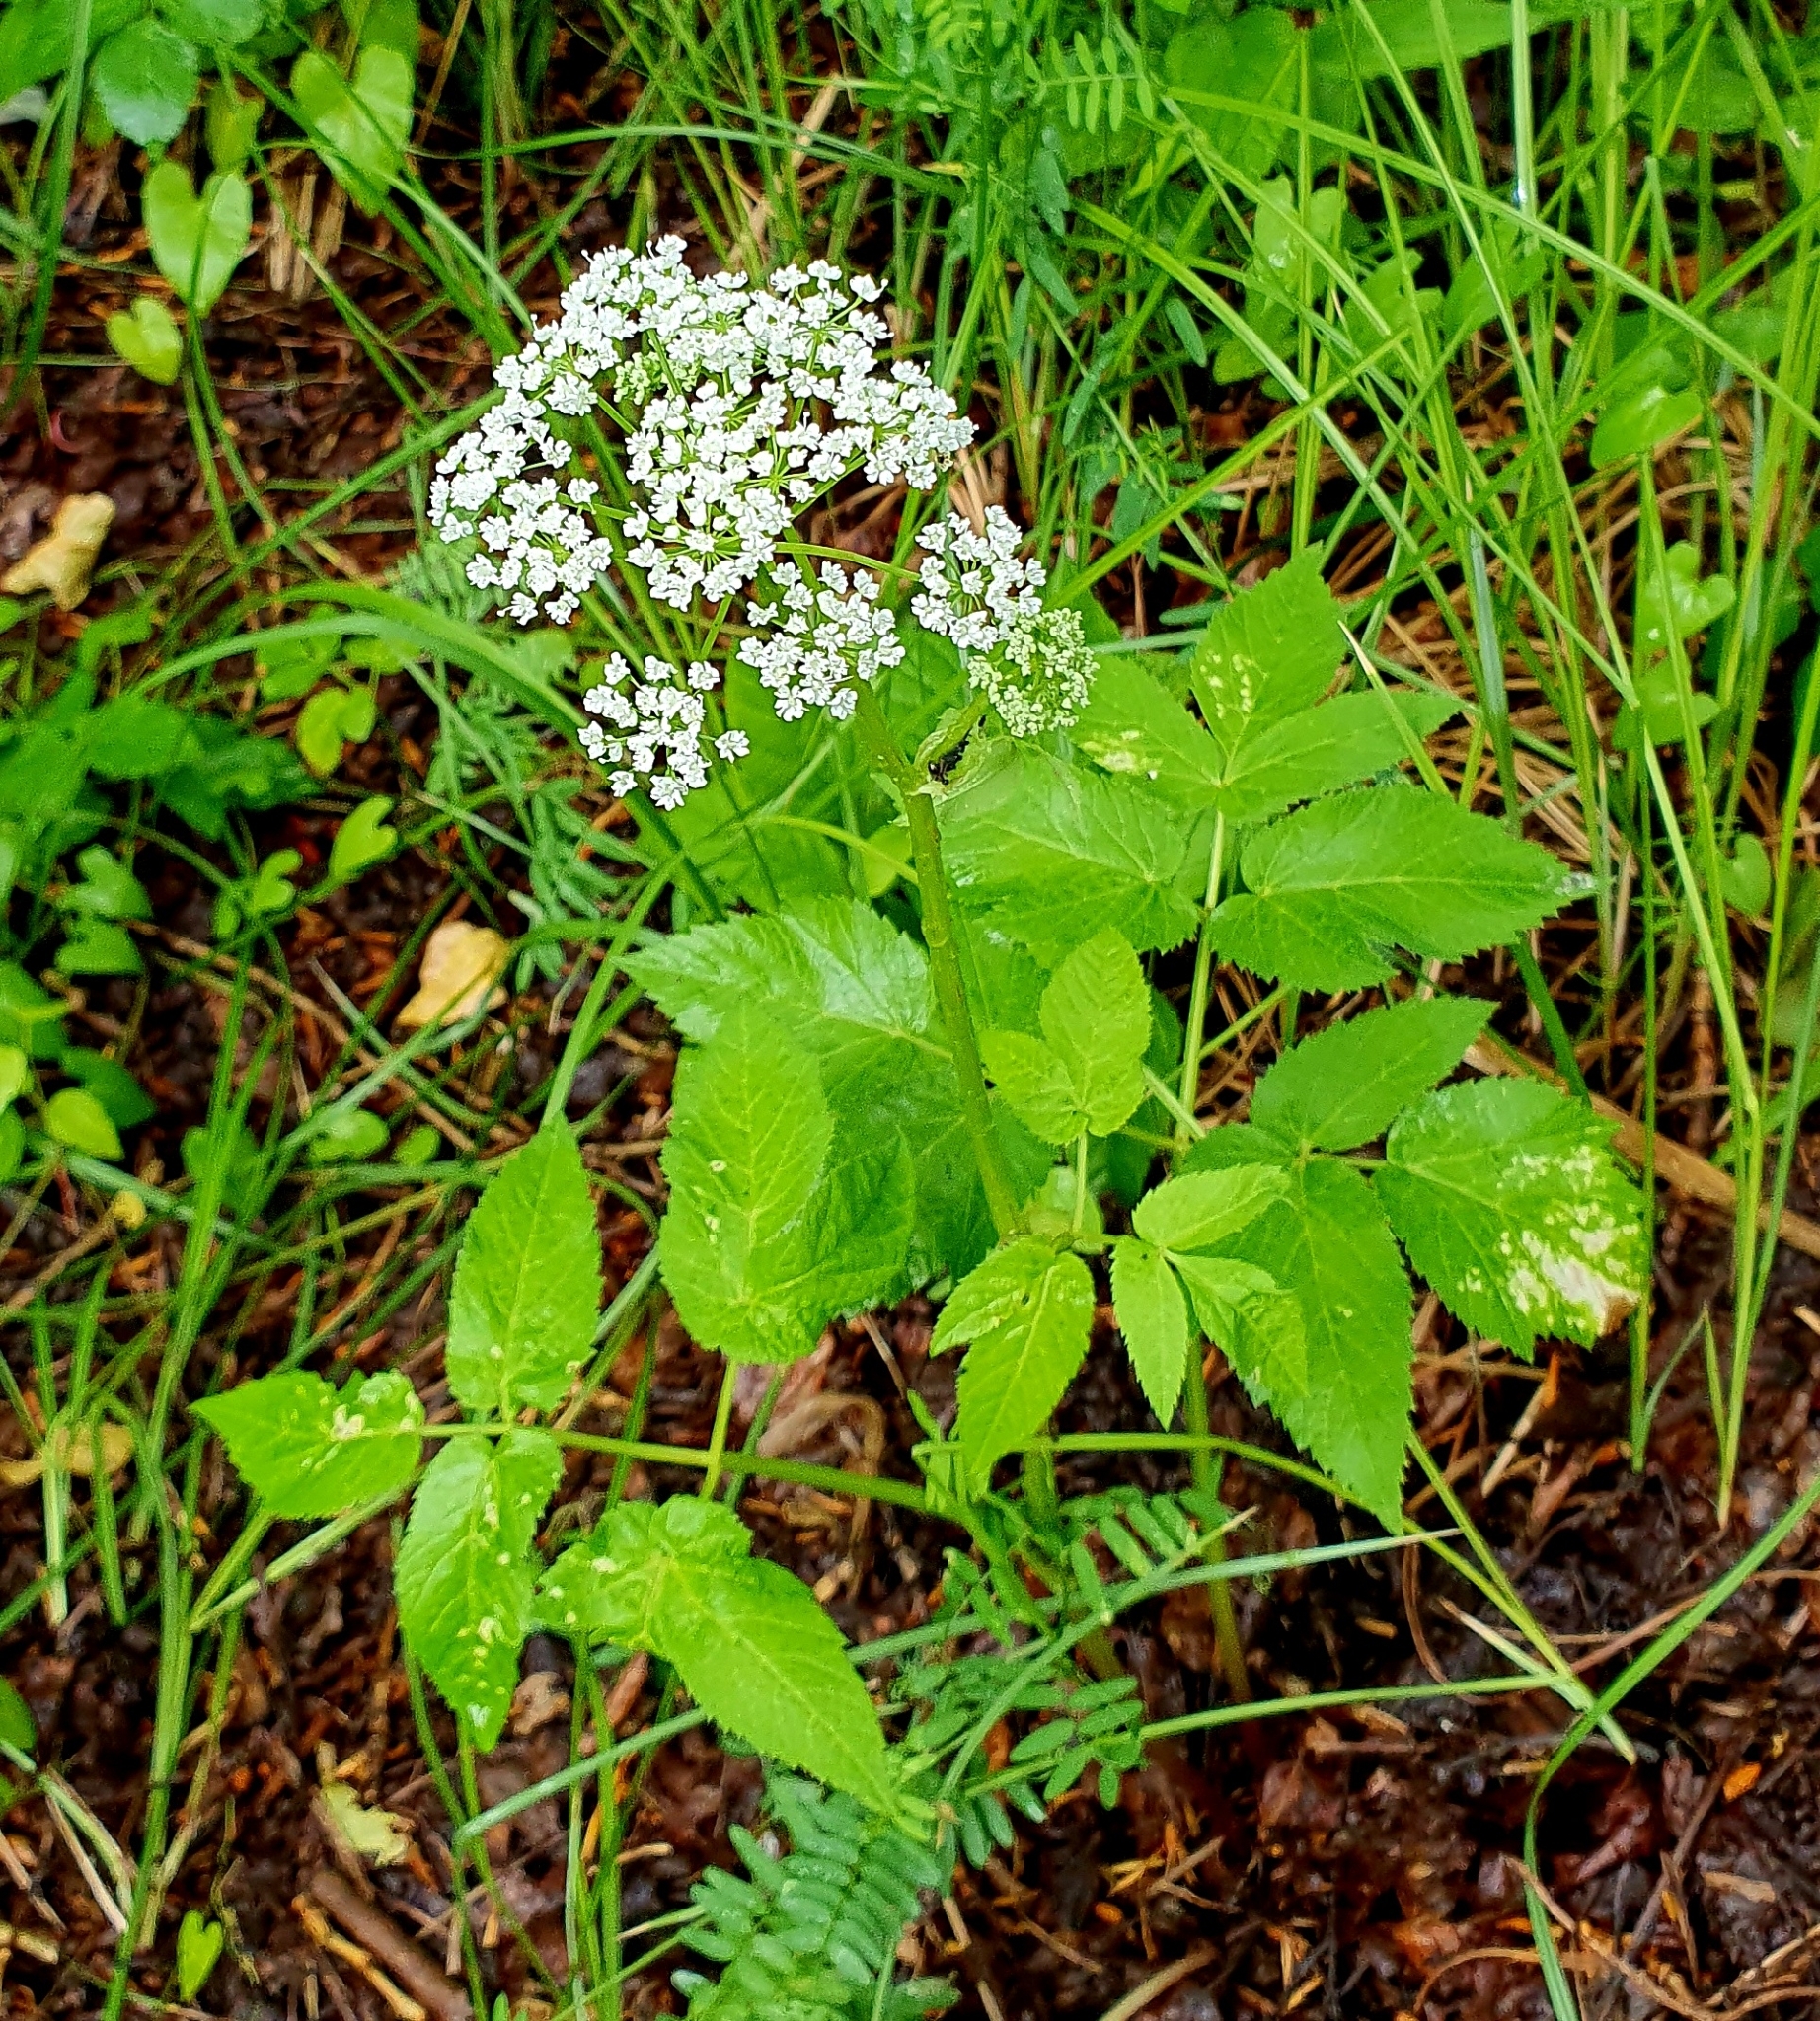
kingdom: Plantae
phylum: Tracheophyta
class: Magnoliopsida
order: Apiales
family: Apiaceae
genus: Aegopodium
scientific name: Aegopodium podagraria
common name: Ground-elder
